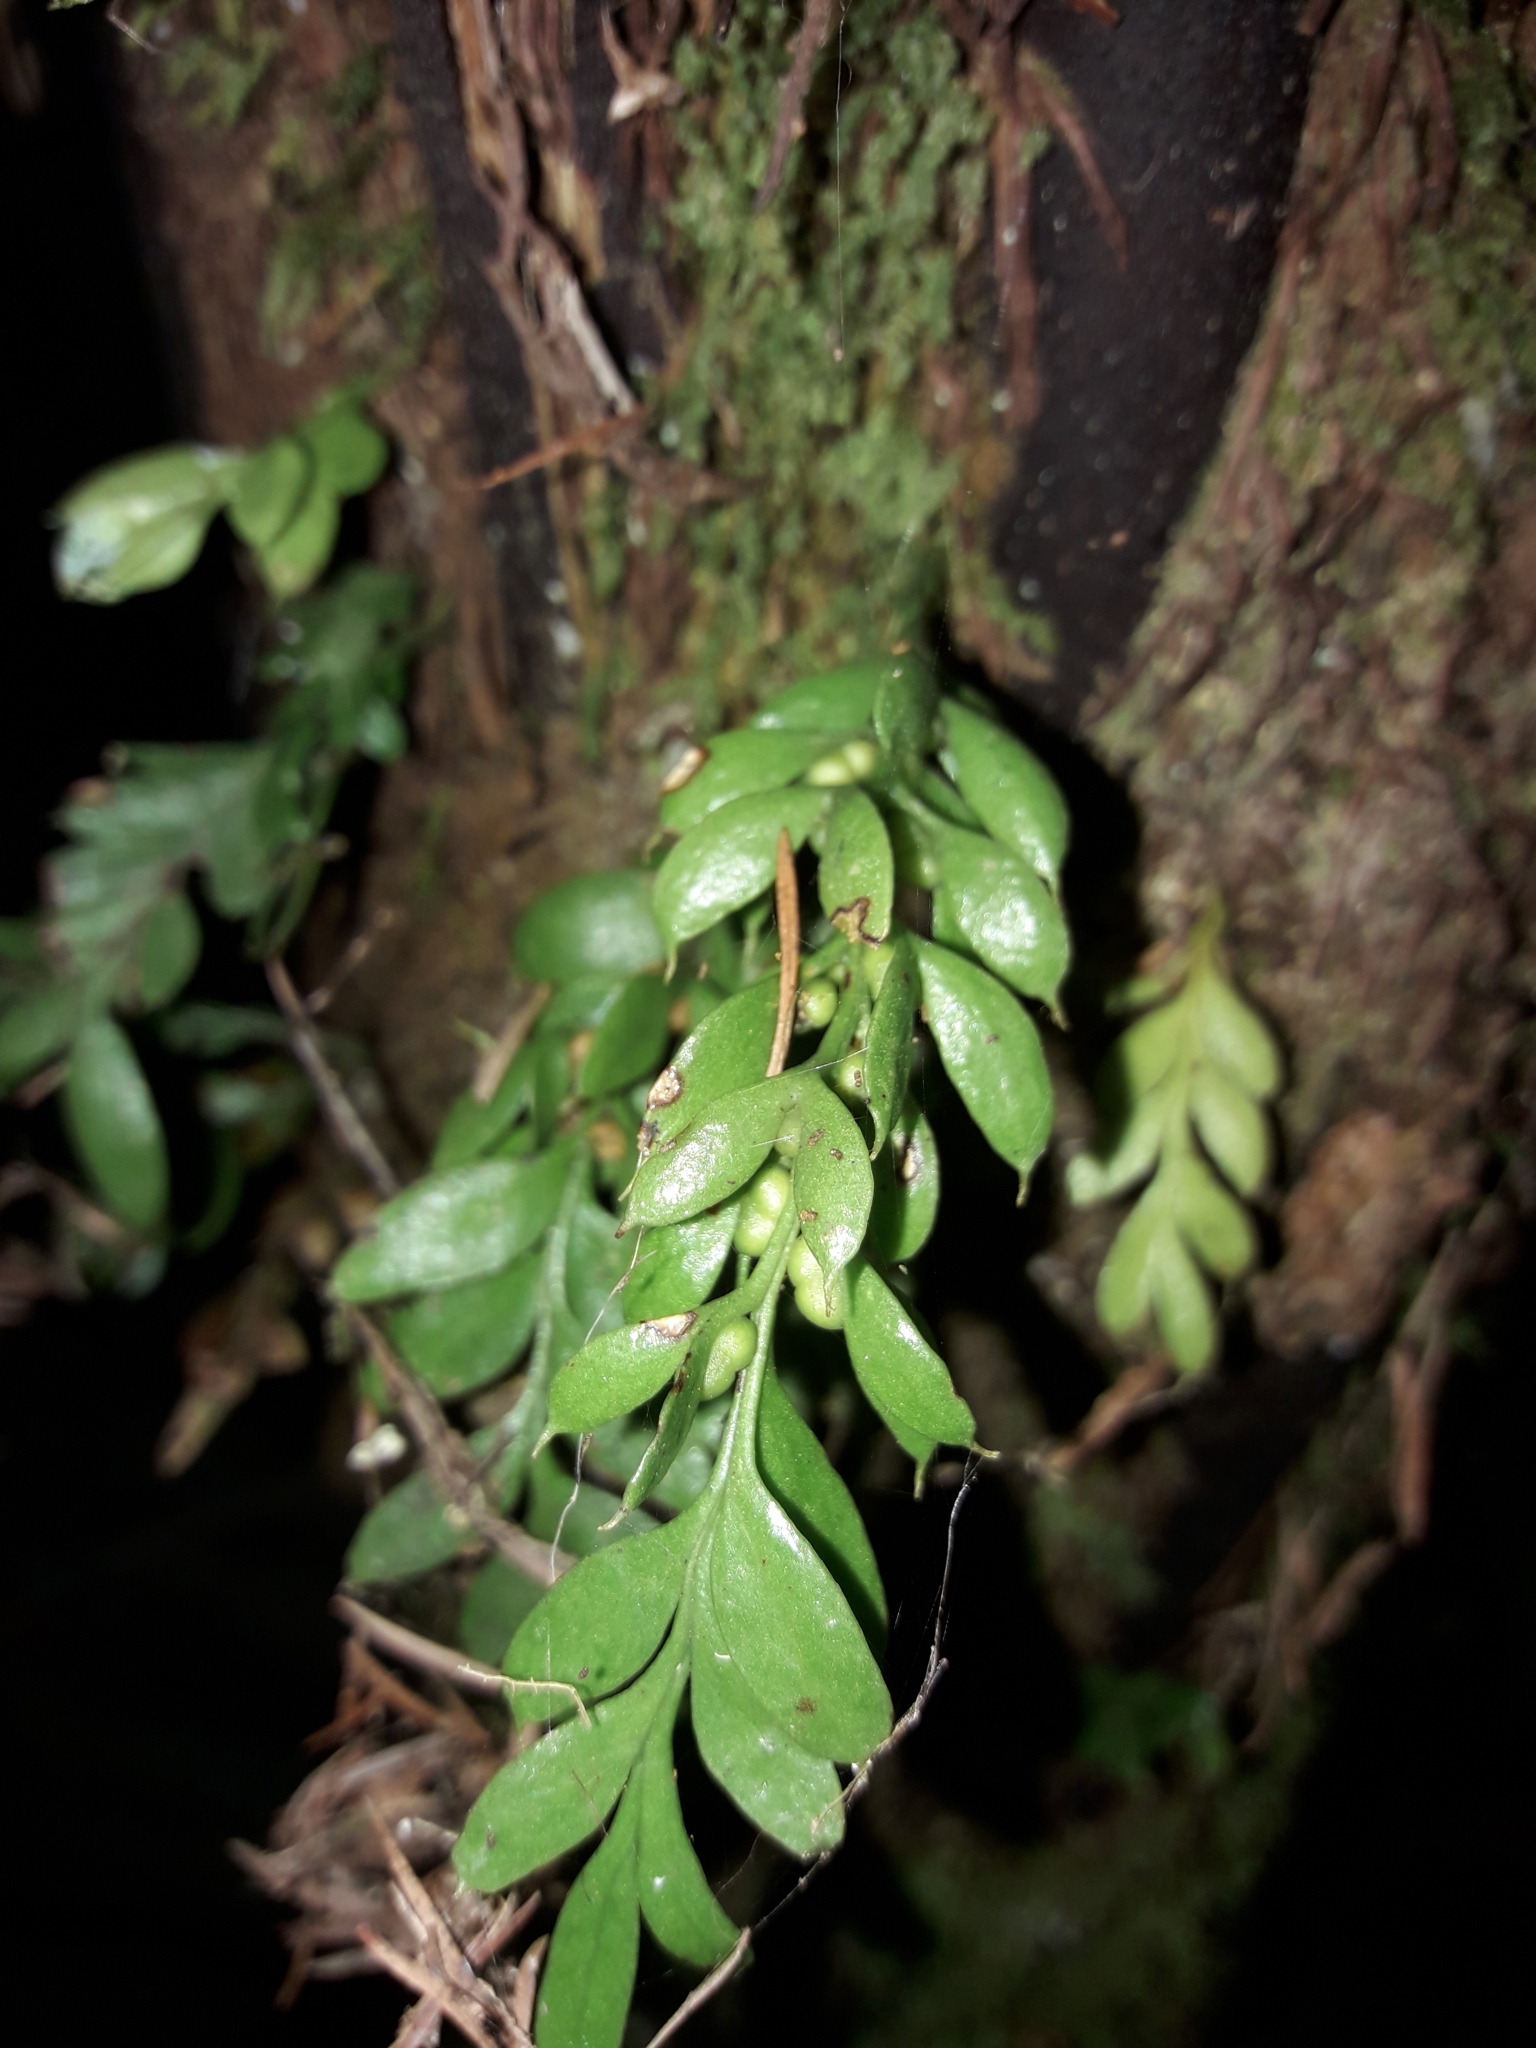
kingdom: Plantae
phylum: Tracheophyta
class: Polypodiopsida
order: Psilotales
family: Psilotaceae
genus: Tmesipteris
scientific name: Tmesipteris lanceolata
